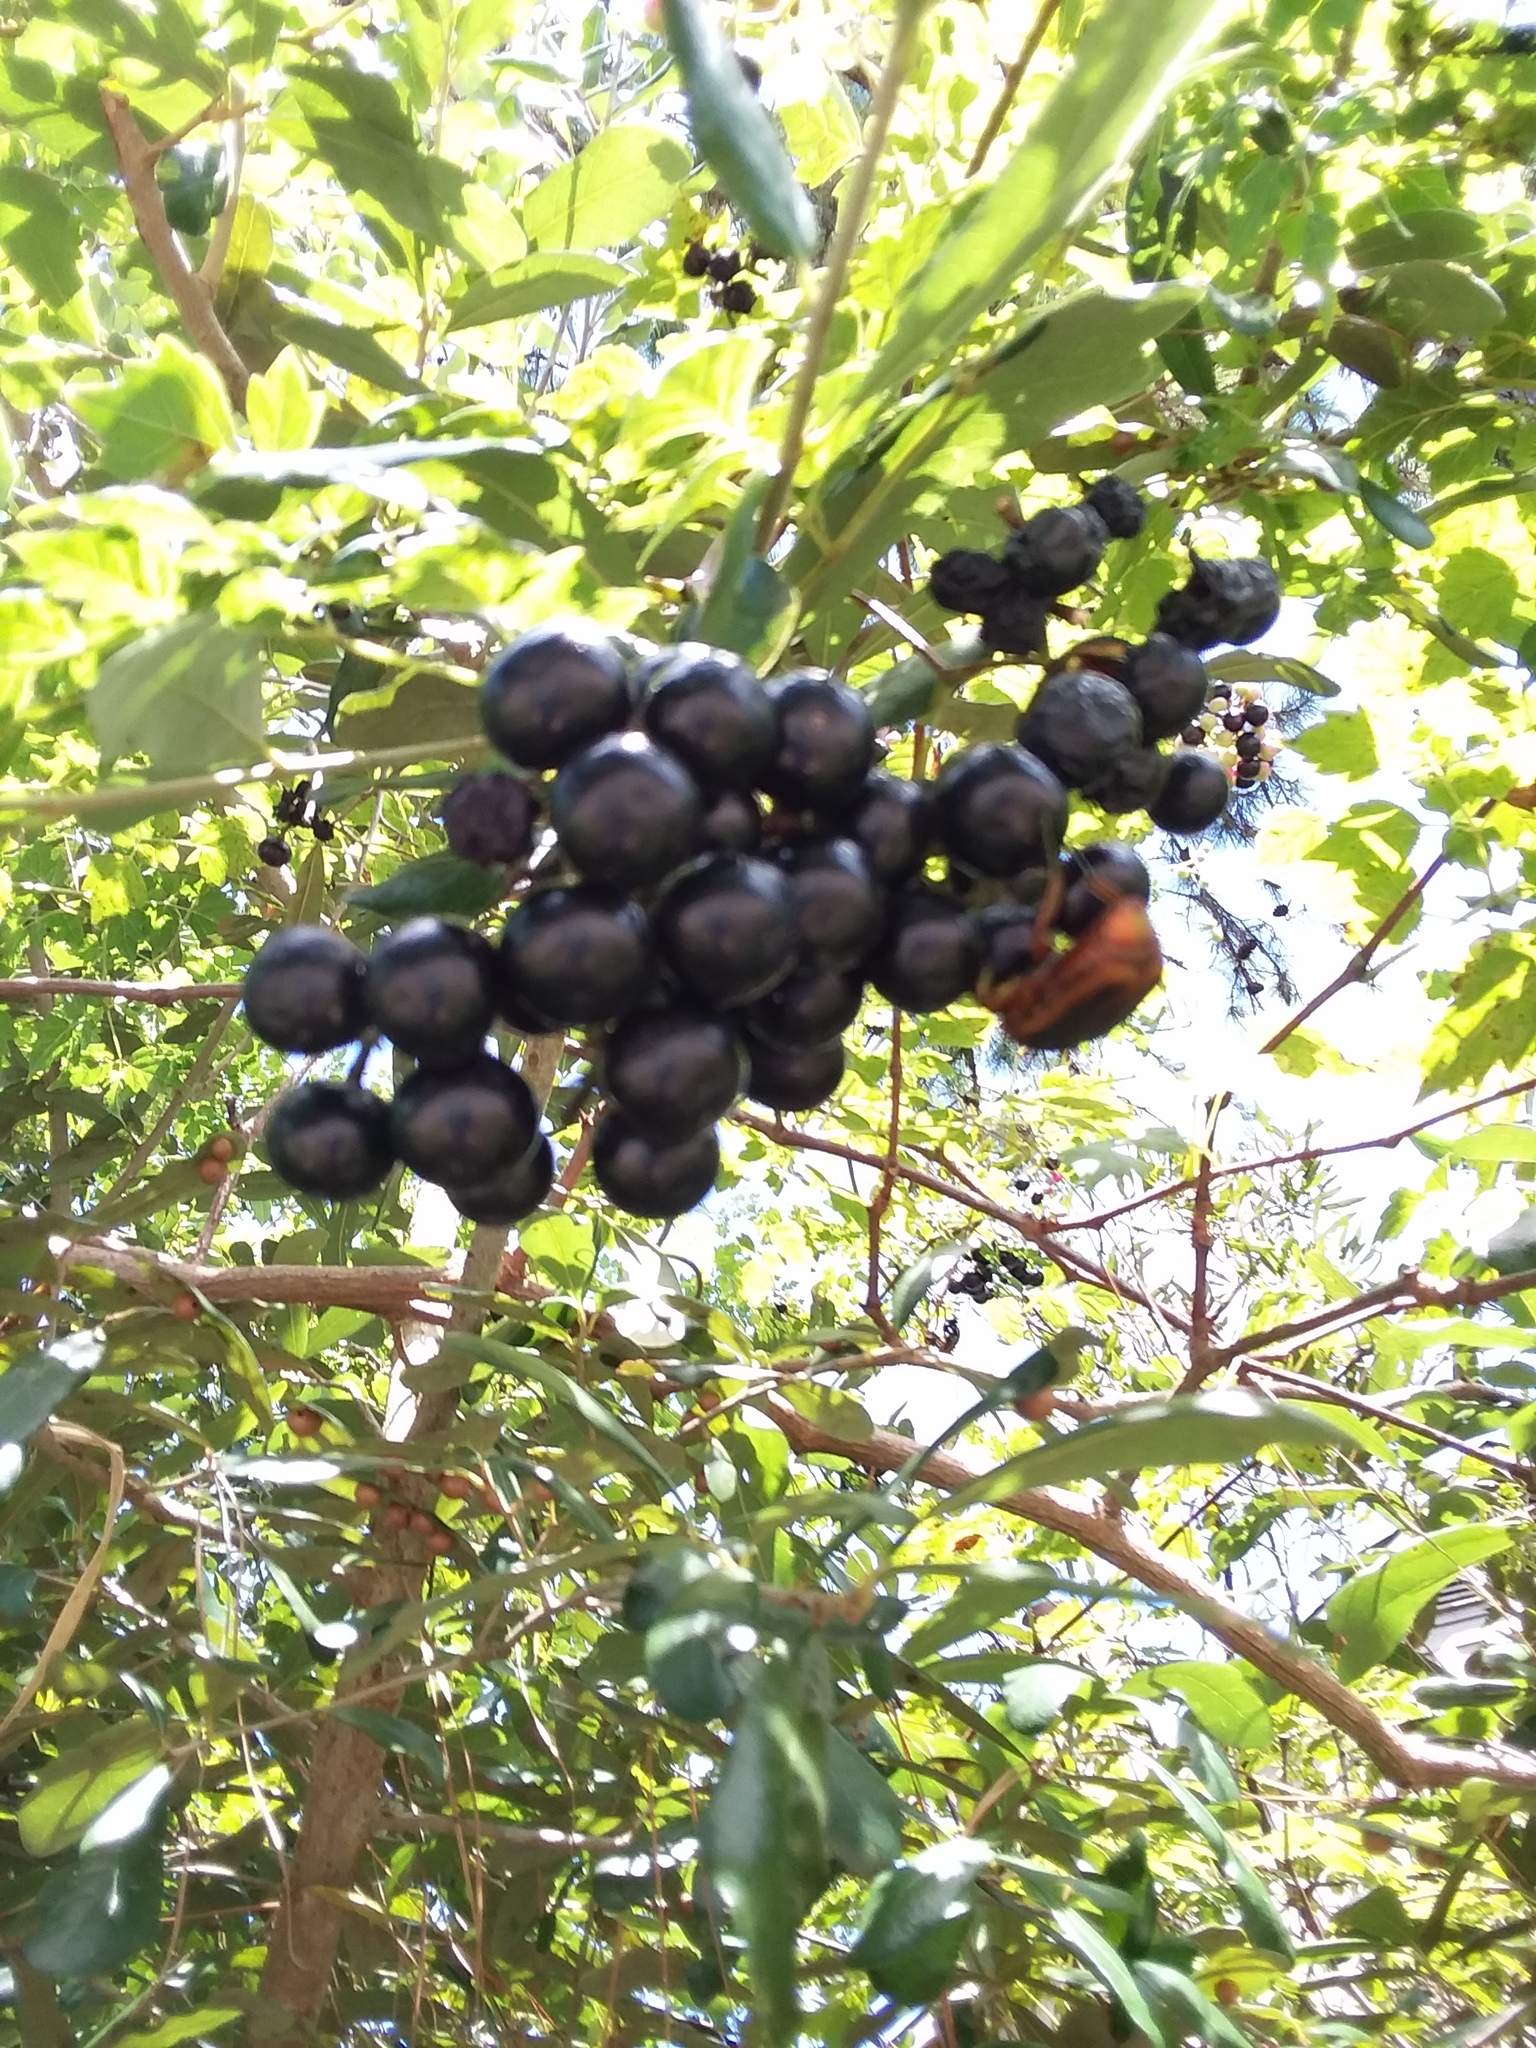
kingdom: Animalia
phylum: Arthropoda
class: Insecta
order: Coleoptera
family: Scarabaeidae
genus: Cotinis
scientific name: Cotinis nitida
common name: Common green june beetle
